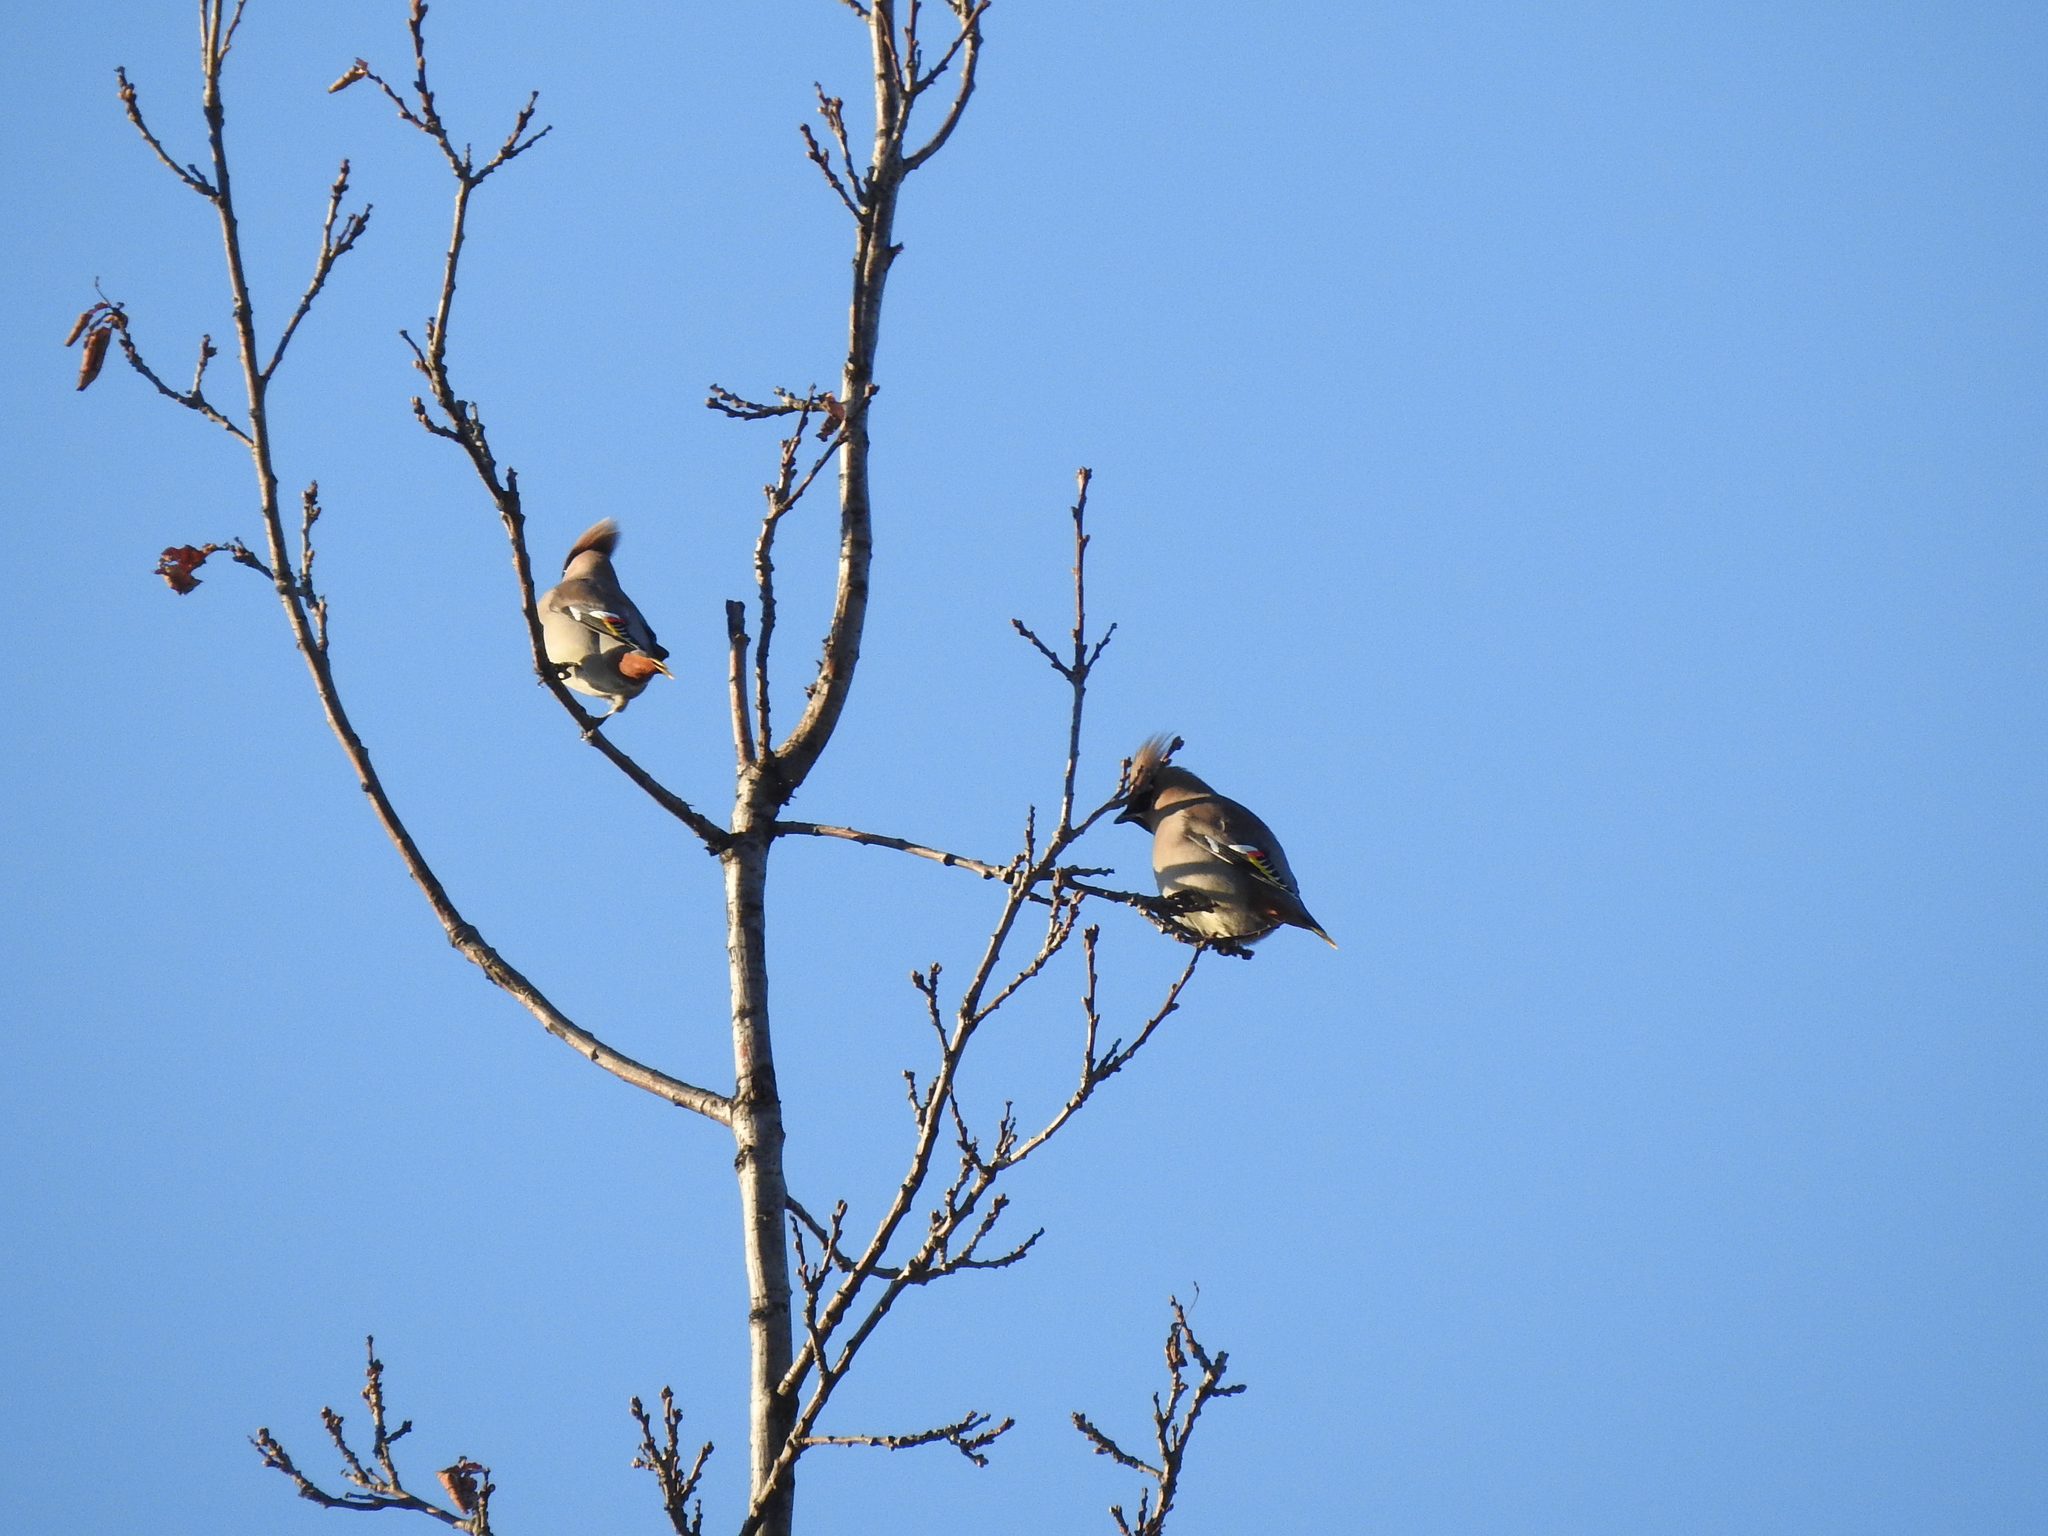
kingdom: Animalia
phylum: Chordata
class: Aves
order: Passeriformes
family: Bombycillidae
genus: Bombycilla
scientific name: Bombycilla garrulus
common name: Bohemian waxwing
